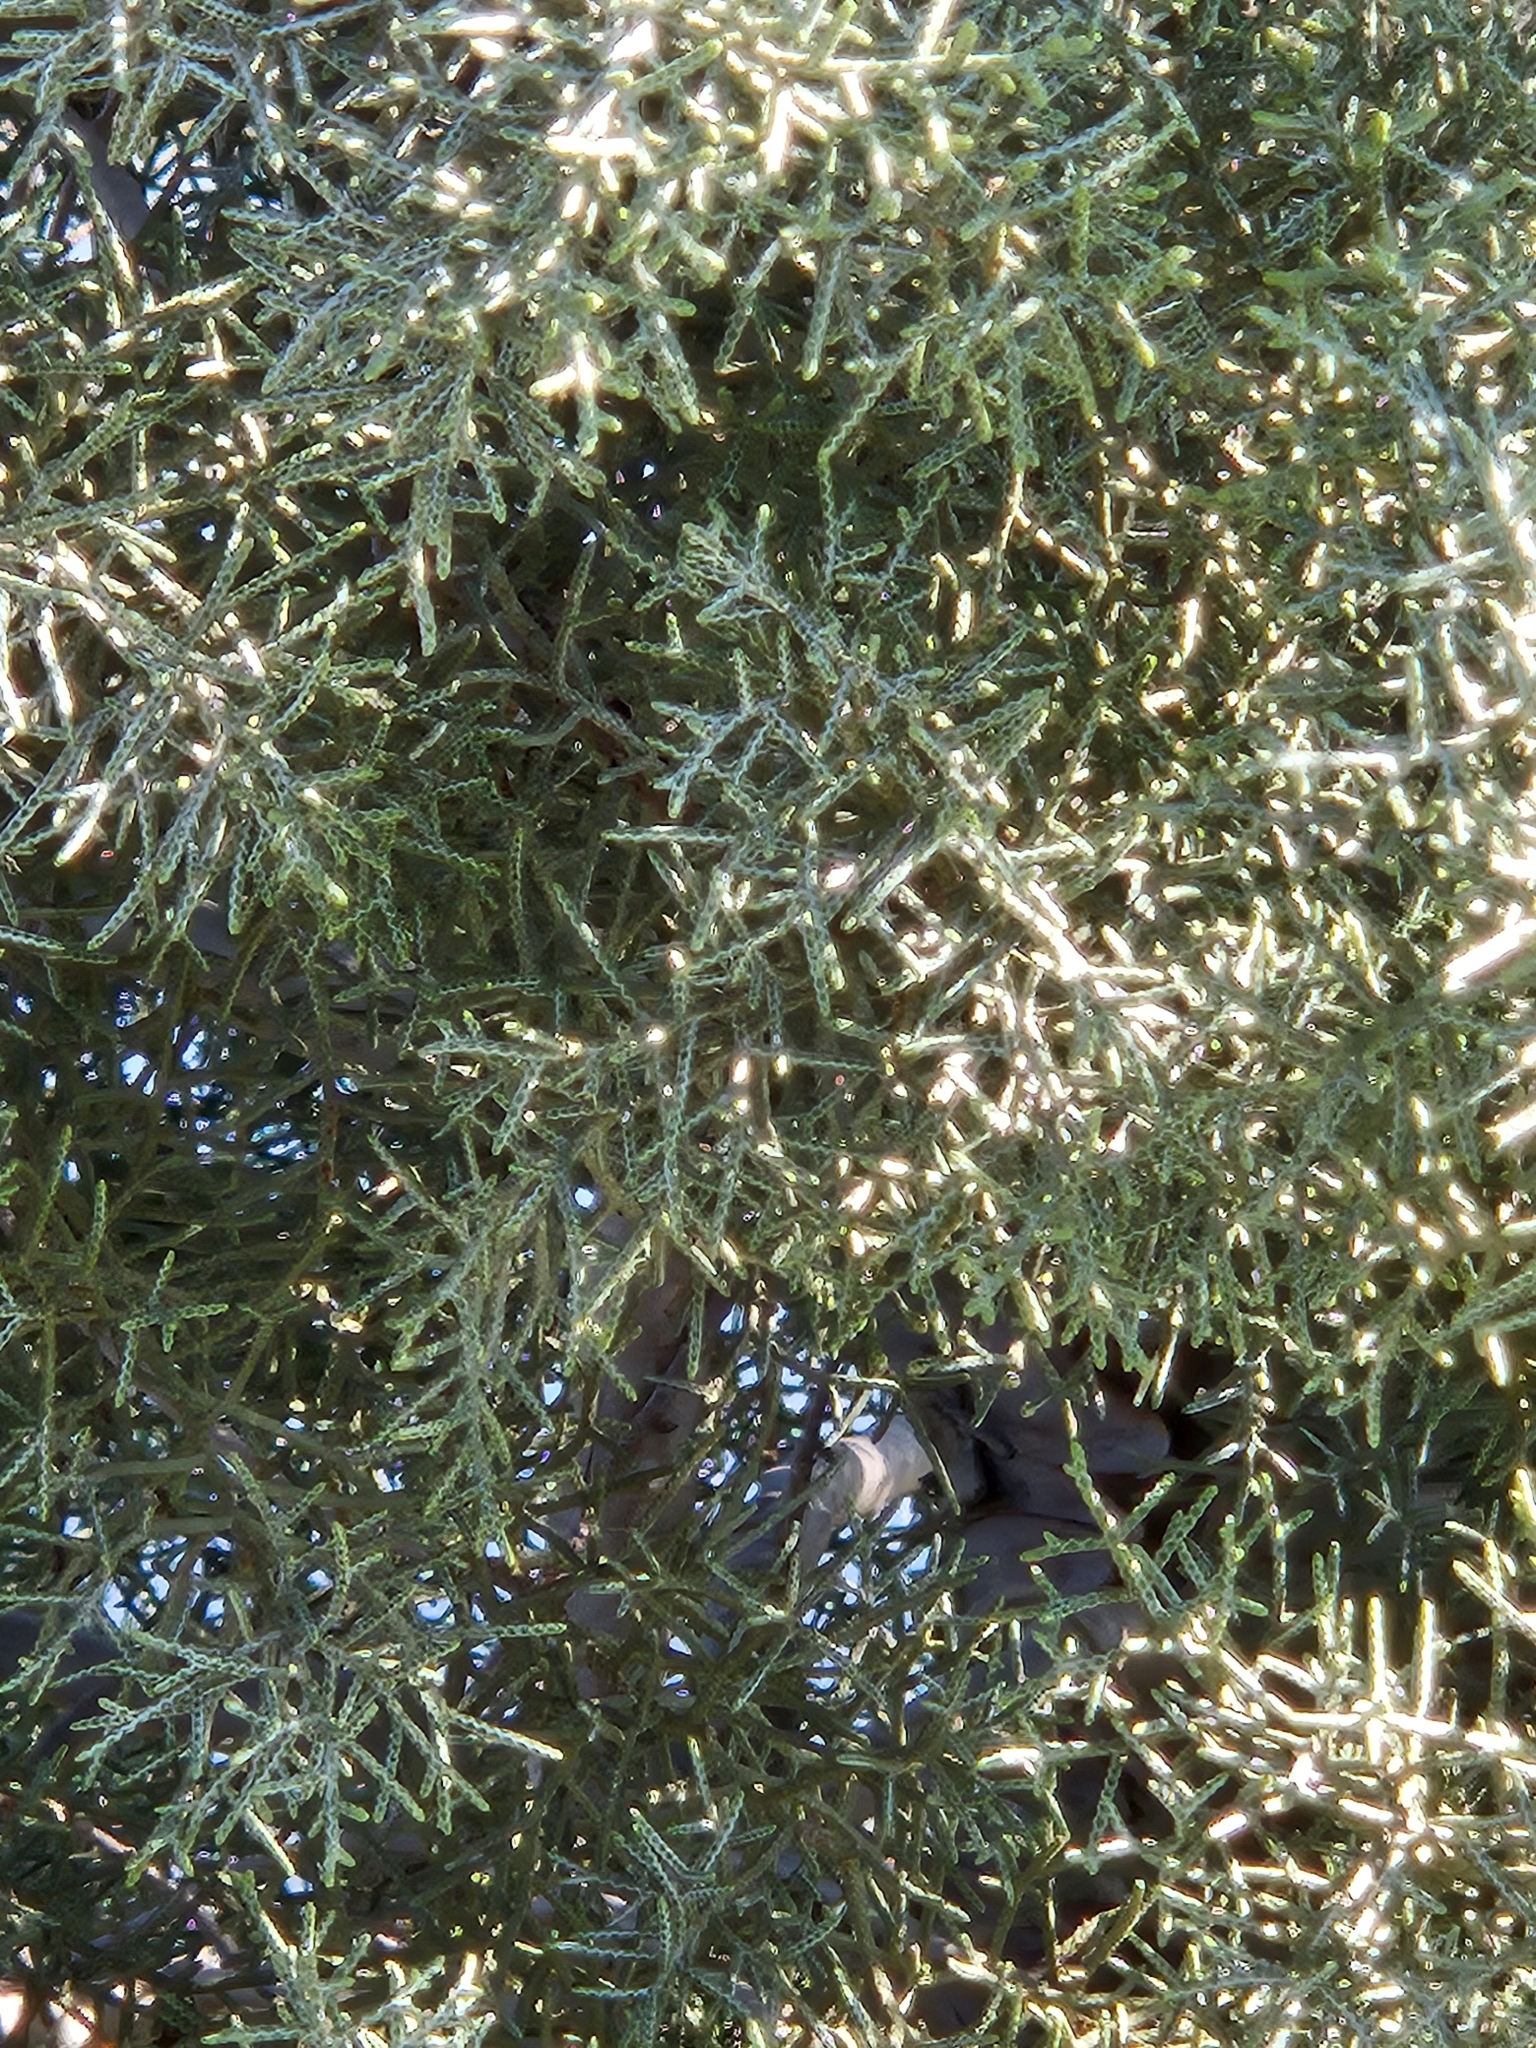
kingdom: Plantae
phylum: Tracheophyta
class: Pinopsida
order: Pinales
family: Cupressaceae
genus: Cupressus
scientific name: Cupressus arizonica
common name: Arizona cypress
